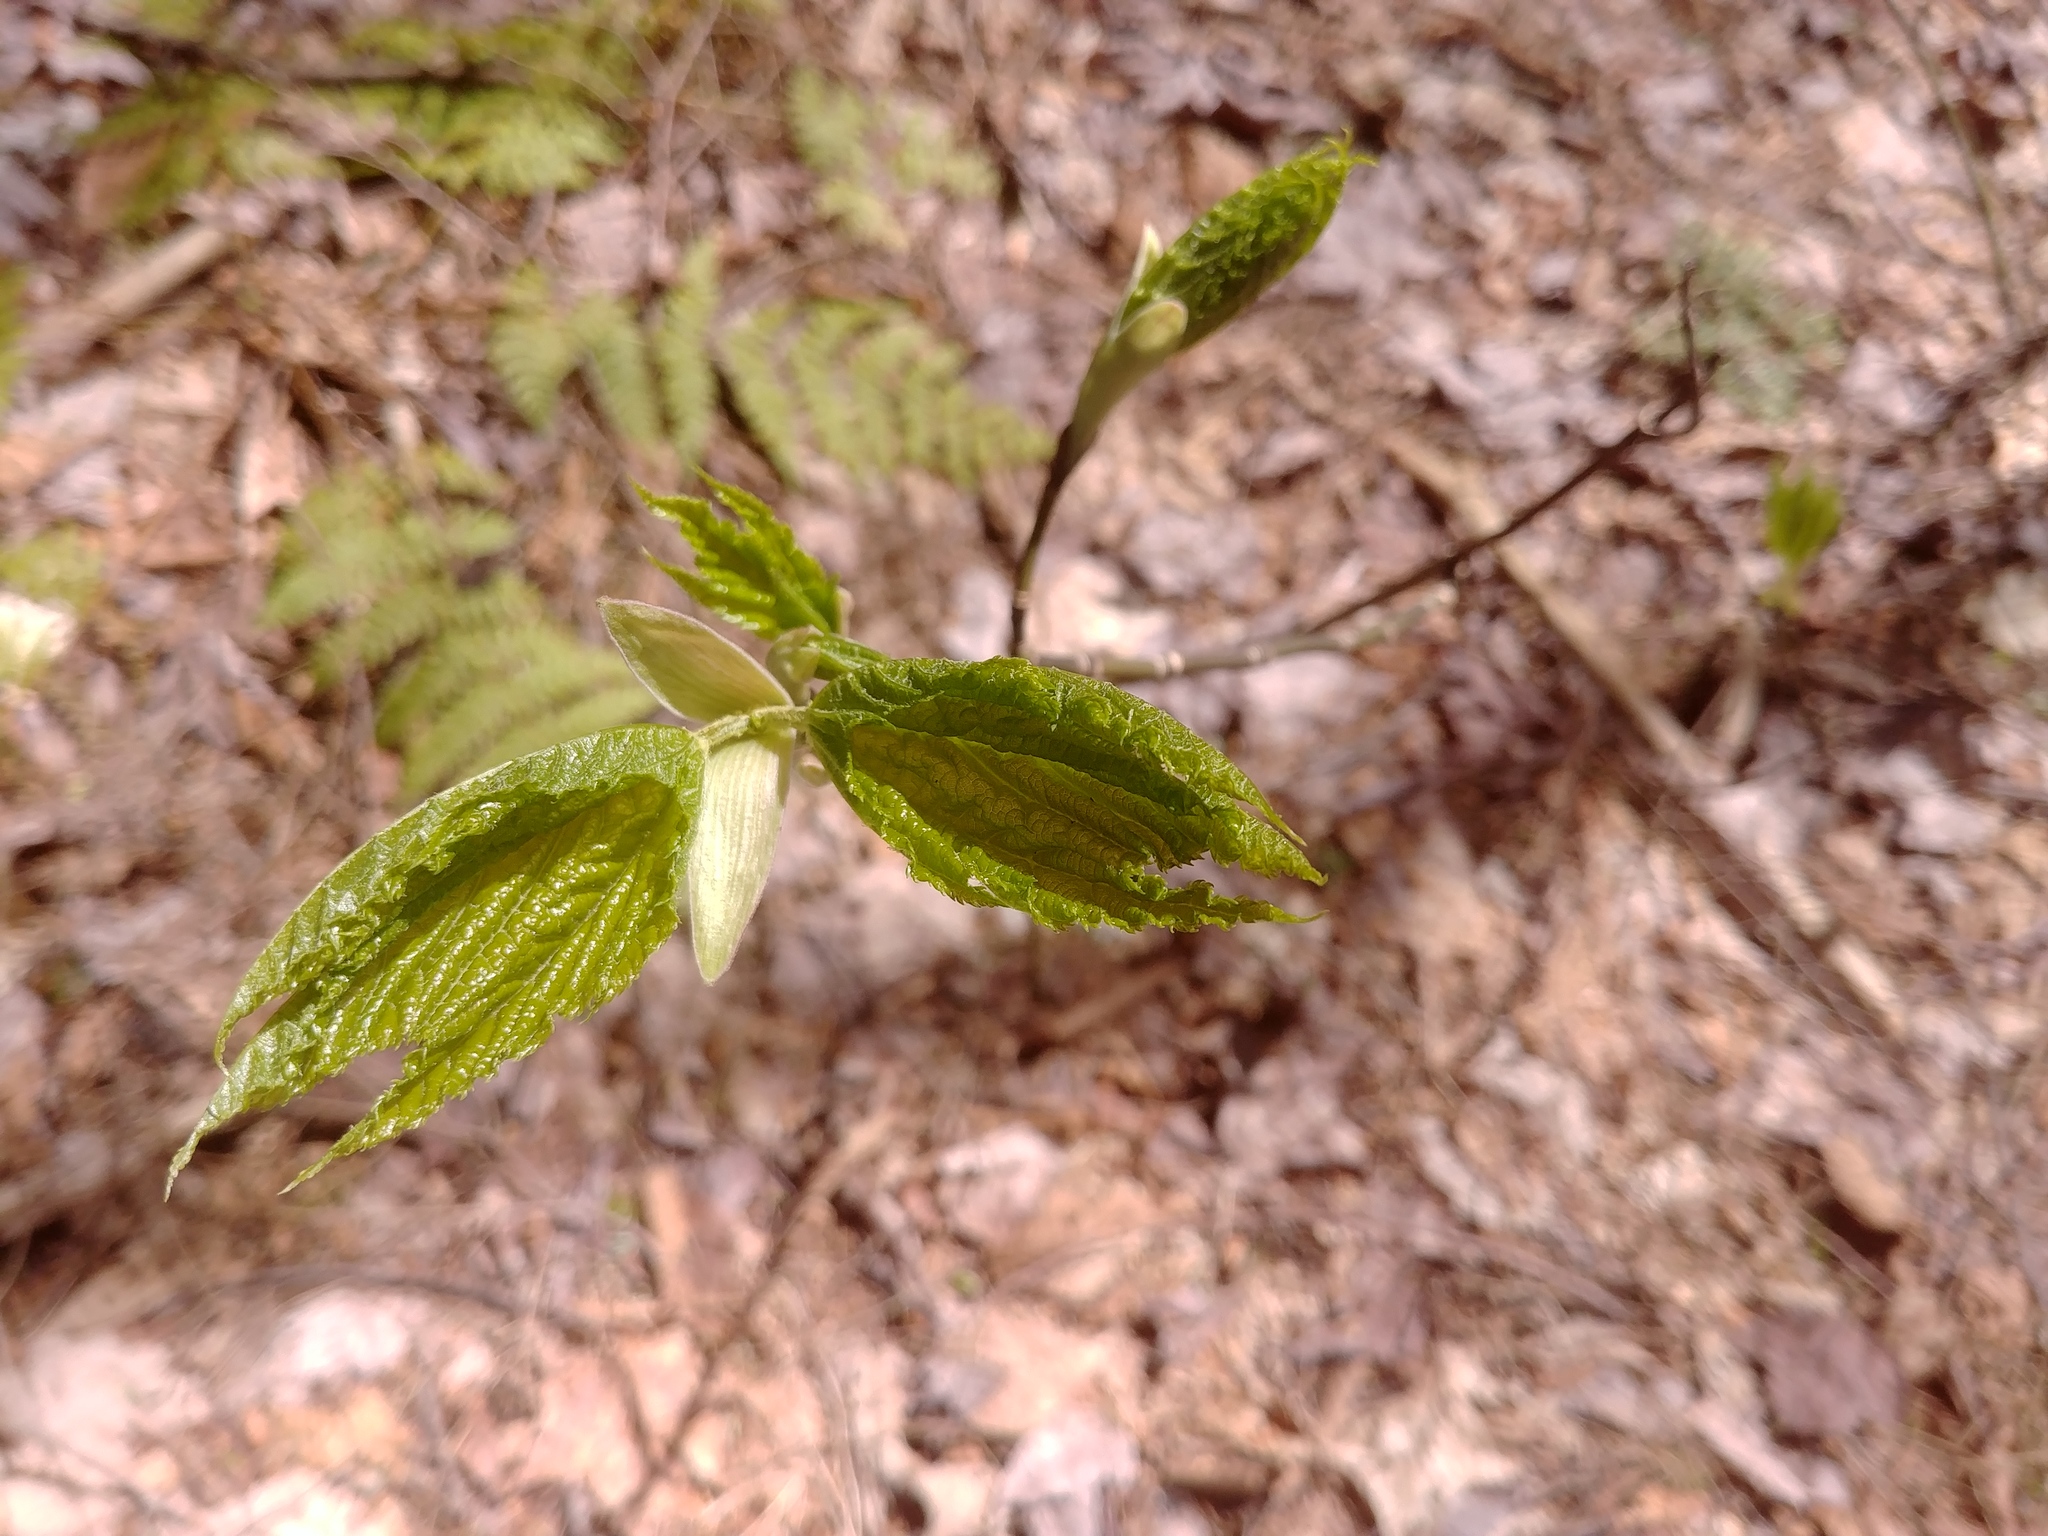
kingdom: Plantae
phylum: Tracheophyta
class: Magnoliopsida
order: Sapindales
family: Sapindaceae
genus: Acer
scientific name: Acer pensylvanicum
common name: Moosewood
